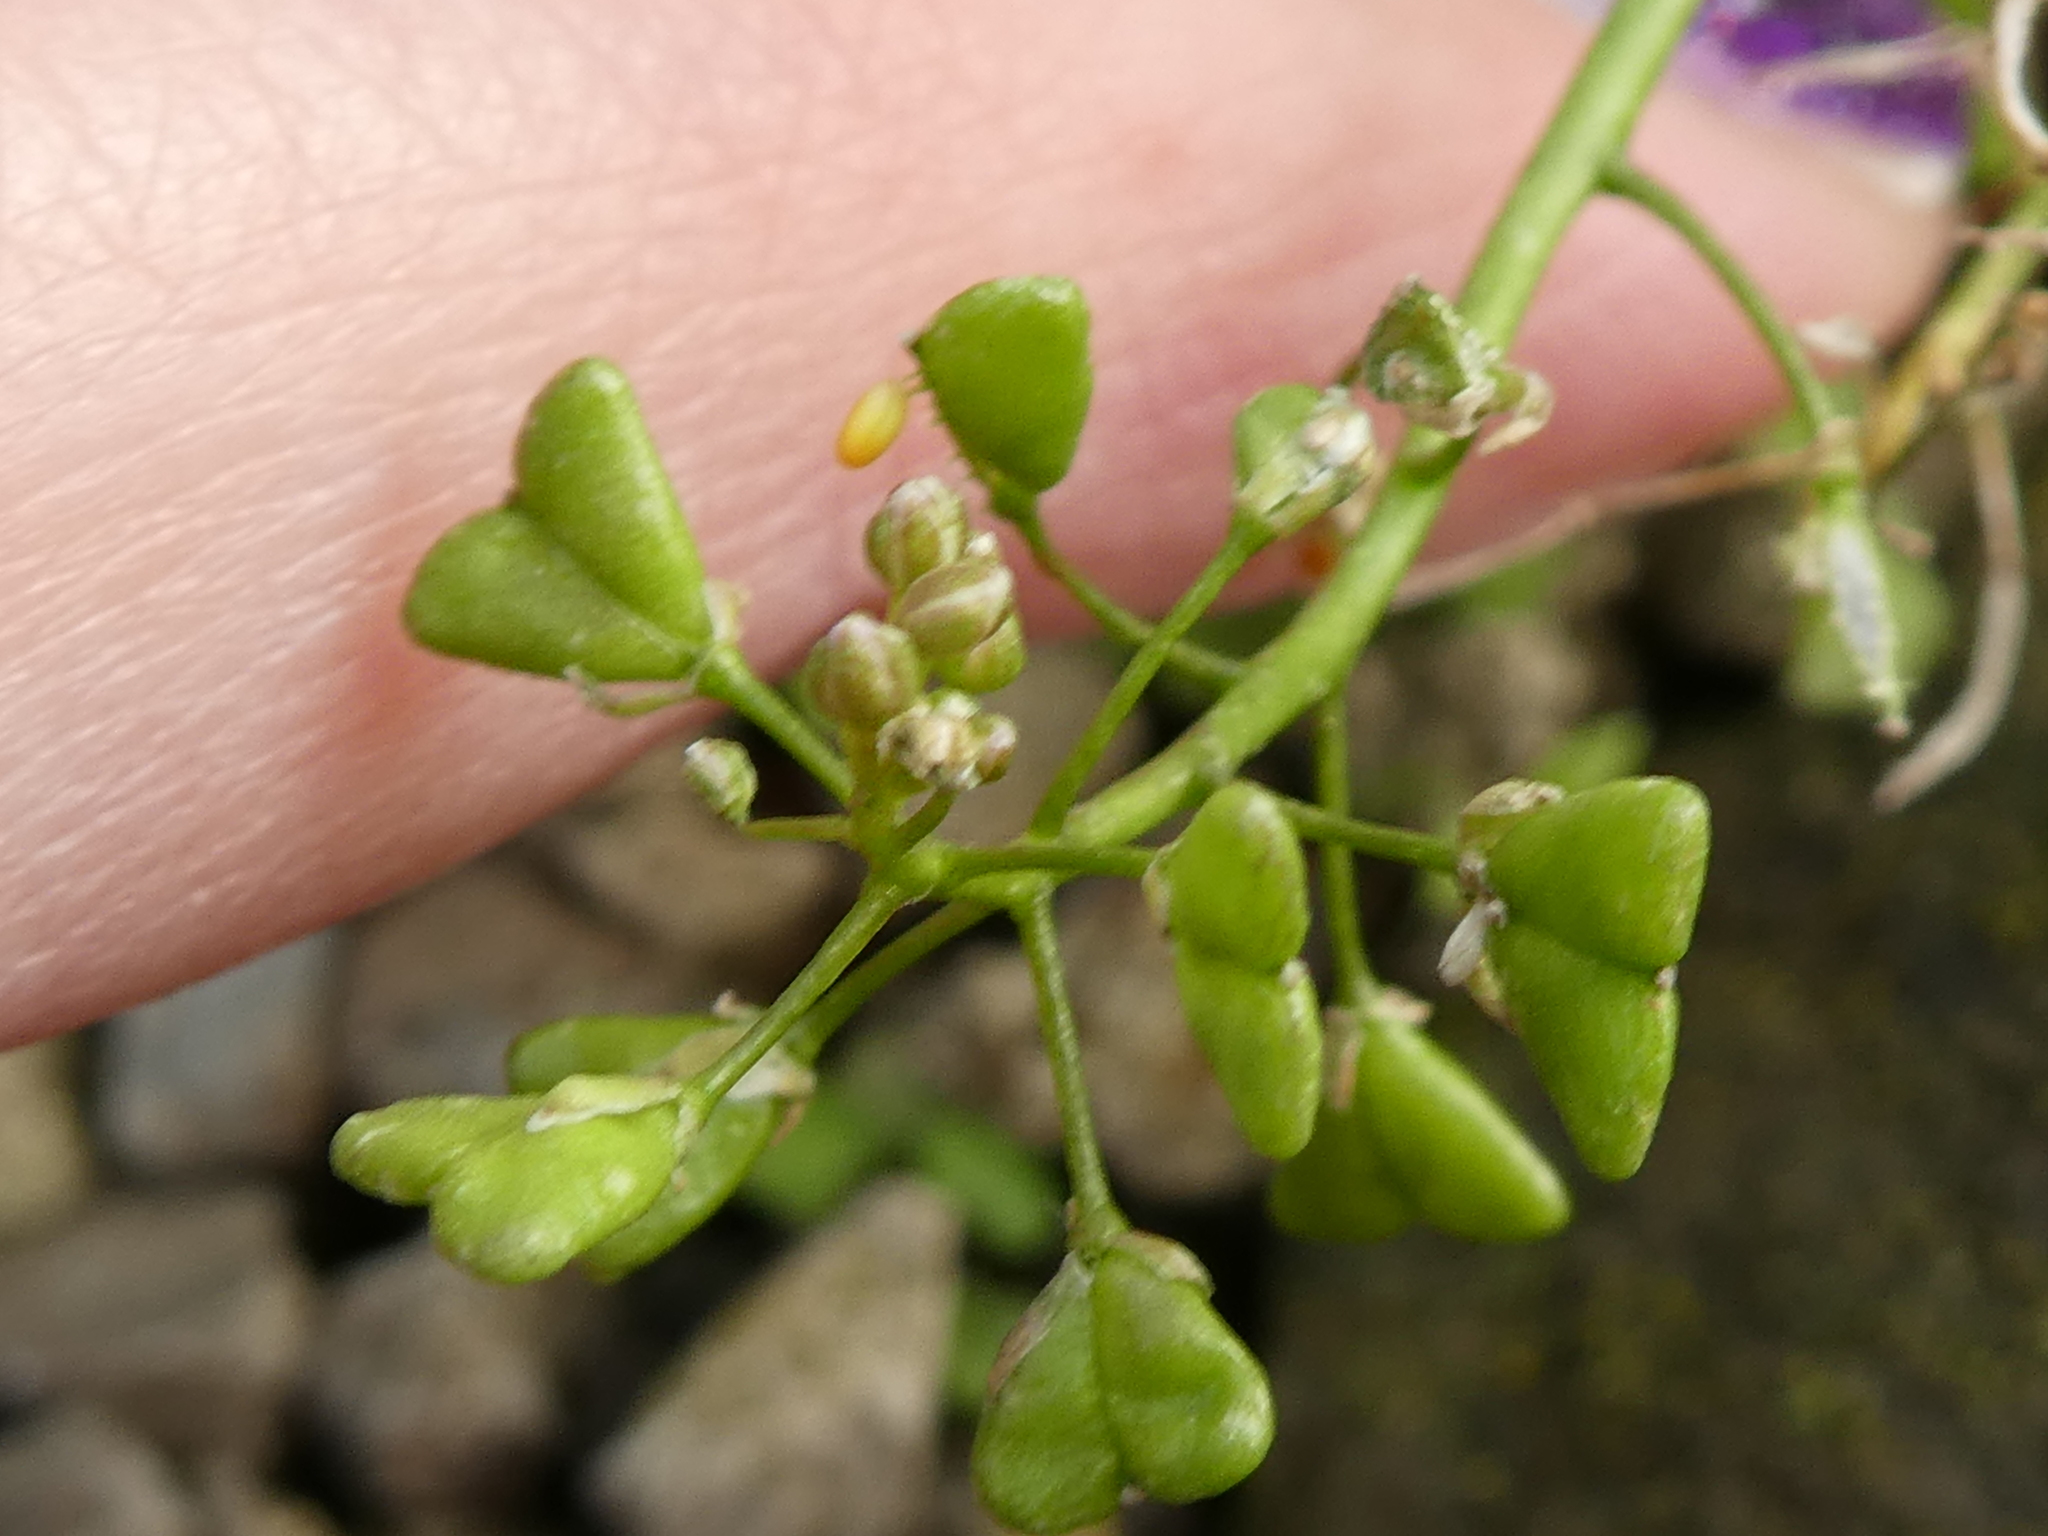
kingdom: Plantae
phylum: Tracheophyta
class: Magnoliopsida
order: Brassicales
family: Brassicaceae
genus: Capsella
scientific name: Capsella bursa-pastoris
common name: Shepherd's purse
